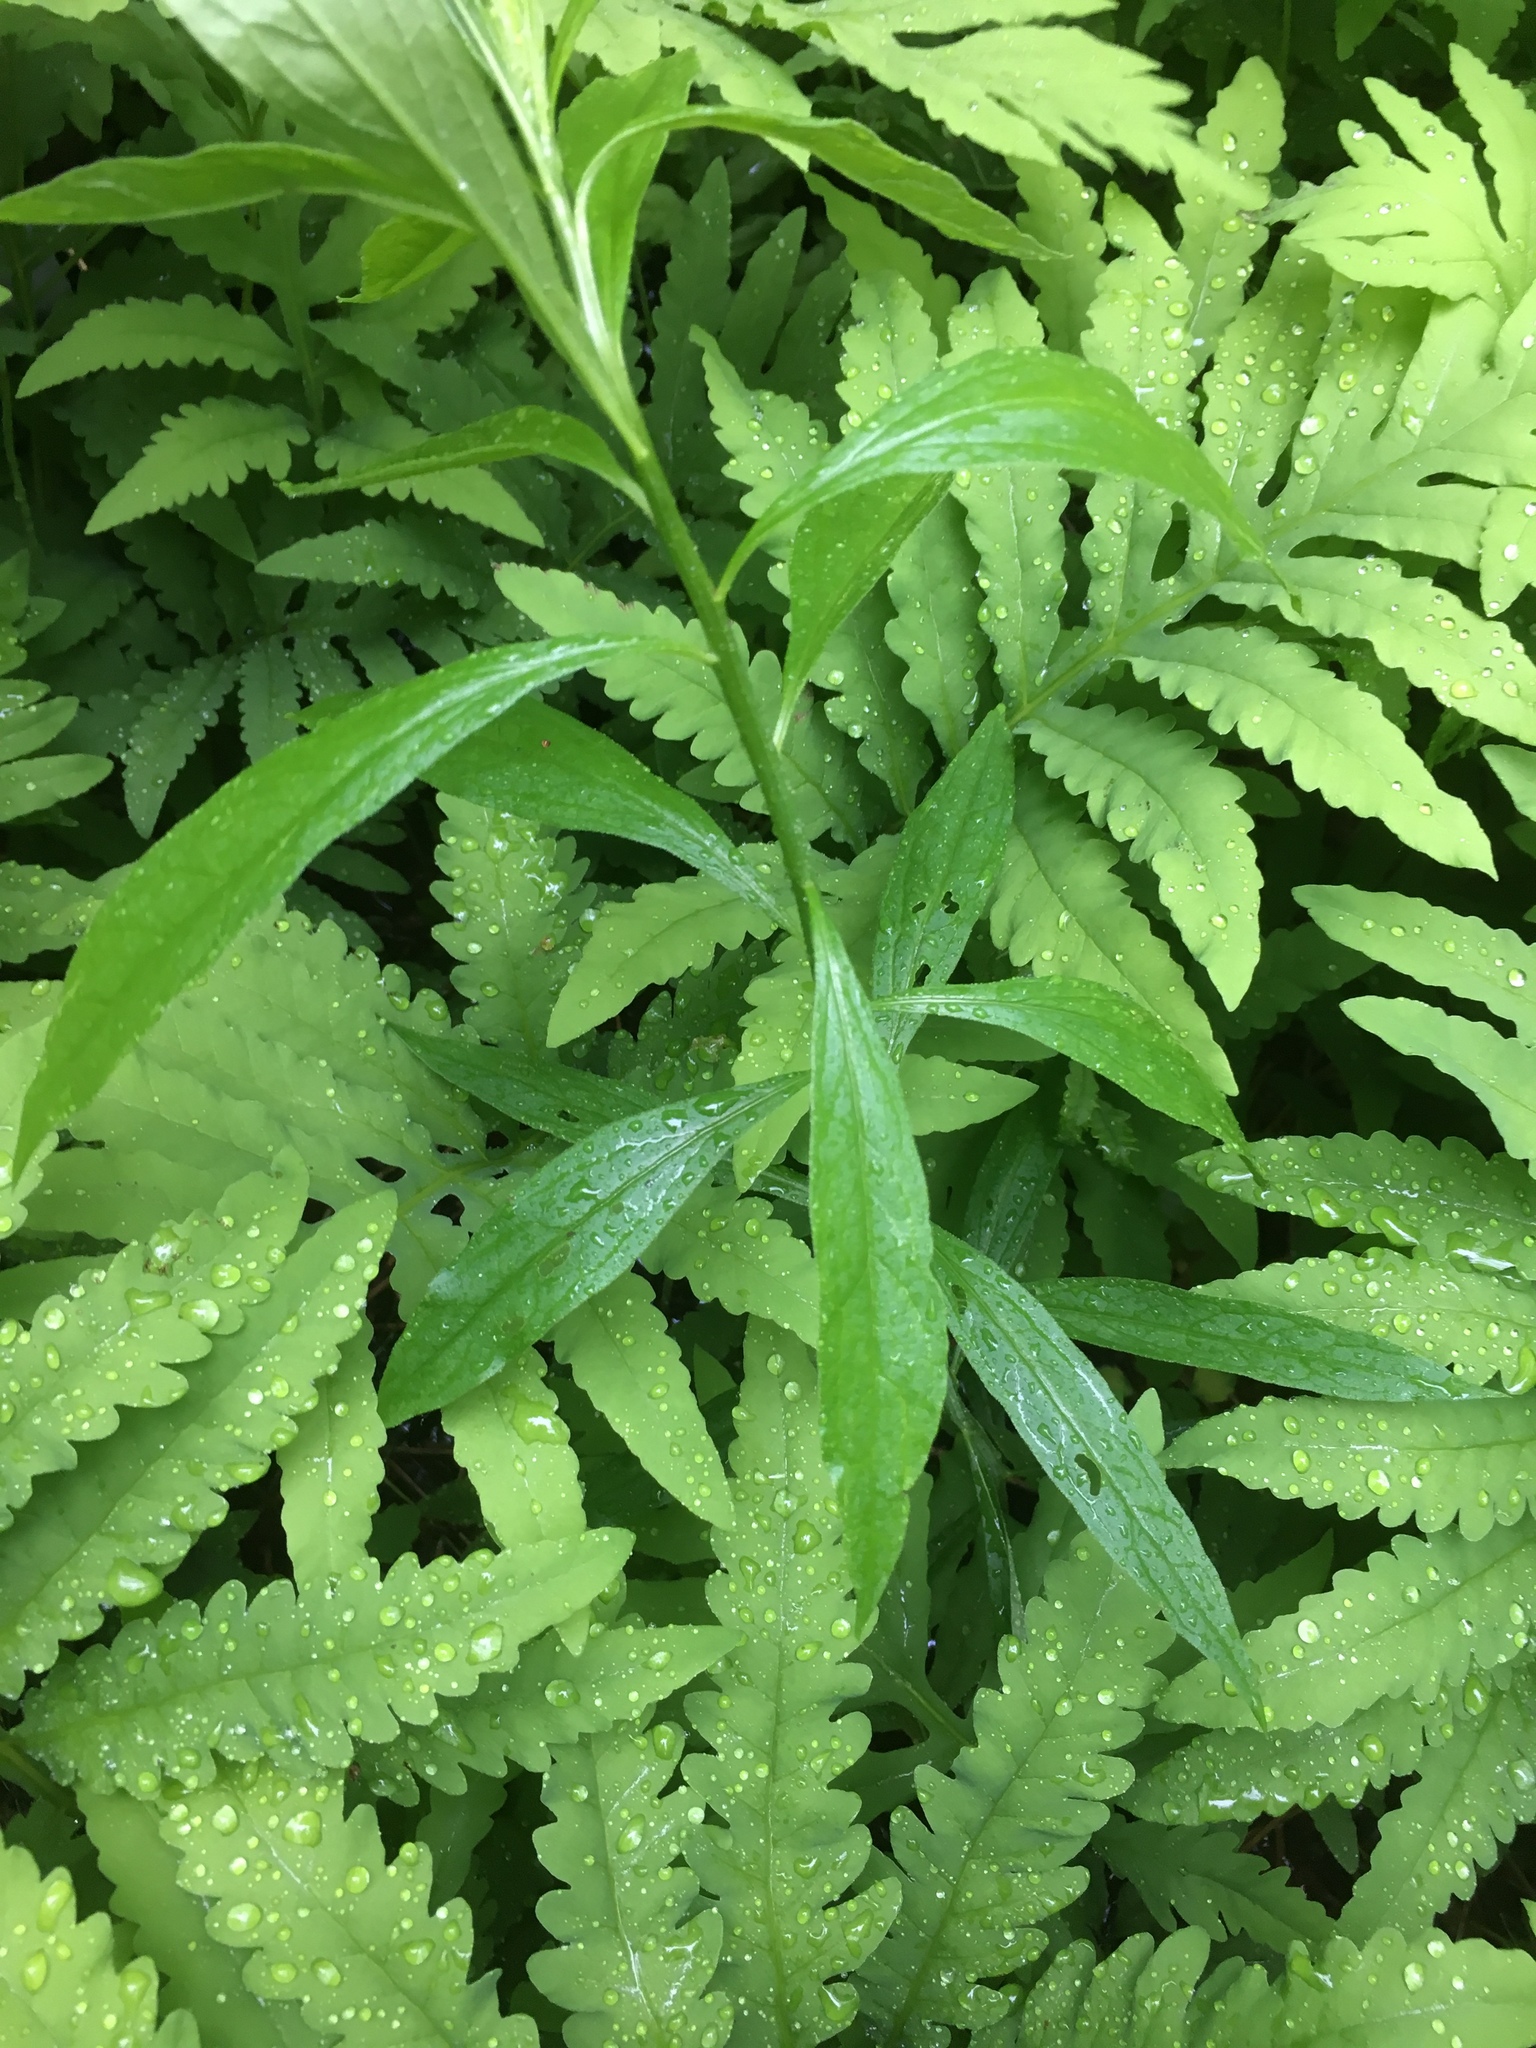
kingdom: Plantae
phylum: Tracheophyta
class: Magnoliopsida
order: Asterales
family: Asteraceae
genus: Solidago
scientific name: Solidago canadensis
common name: Canada goldenrod
